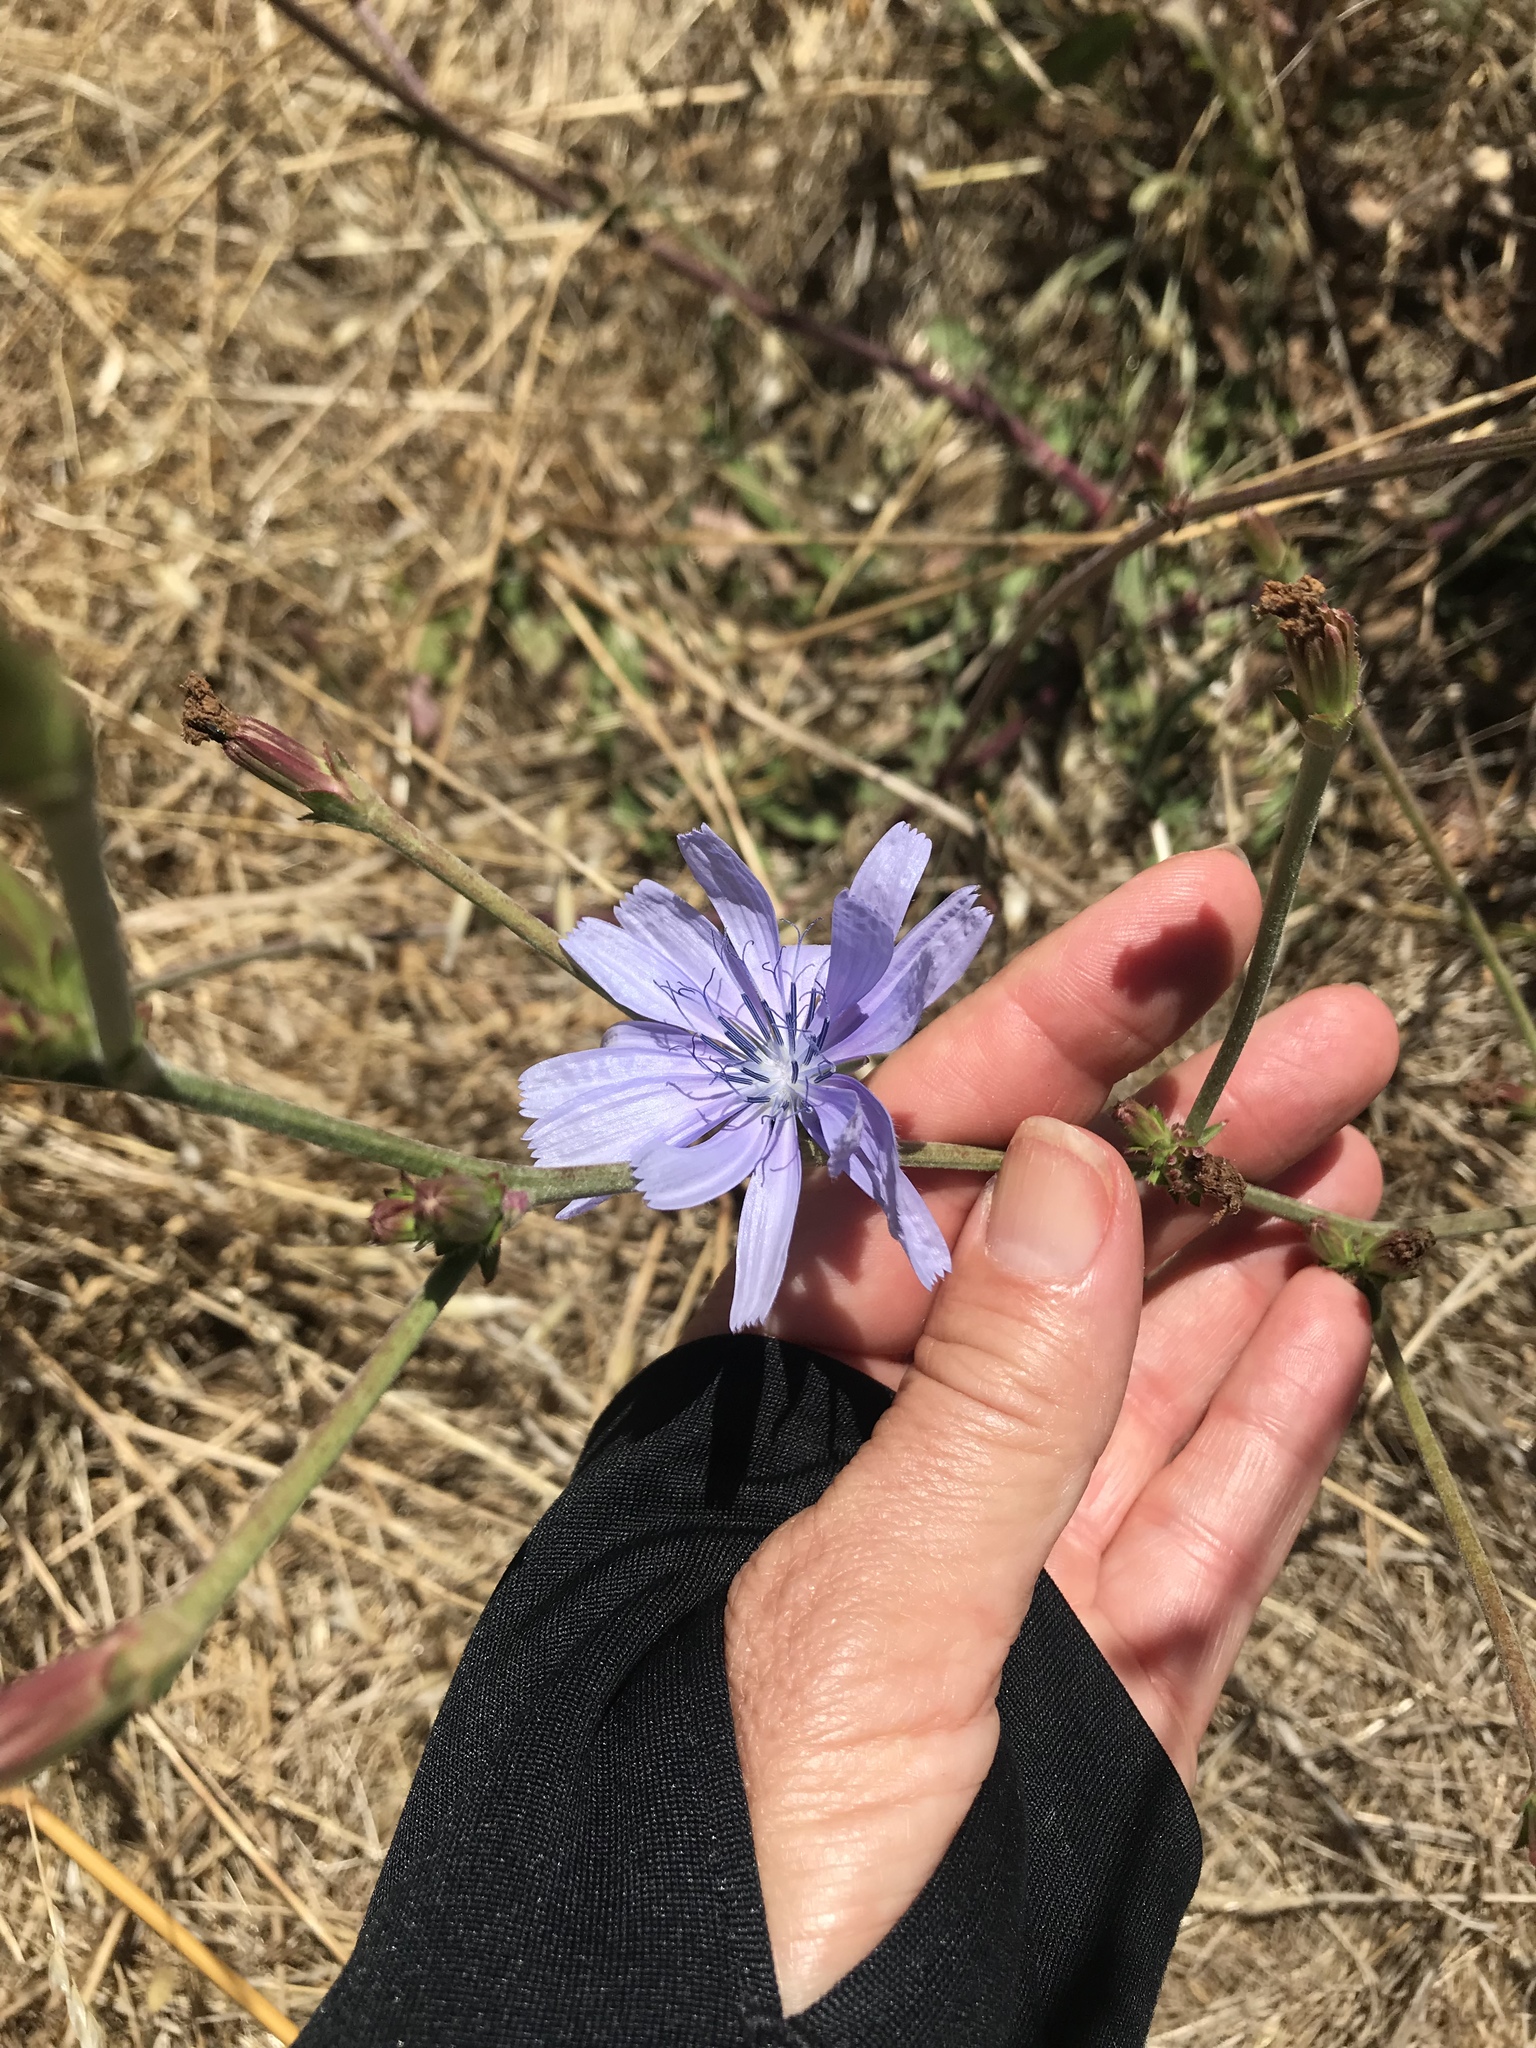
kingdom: Plantae
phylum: Tracheophyta
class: Magnoliopsida
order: Asterales
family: Asteraceae
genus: Cichorium
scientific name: Cichorium intybus
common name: Chicory
